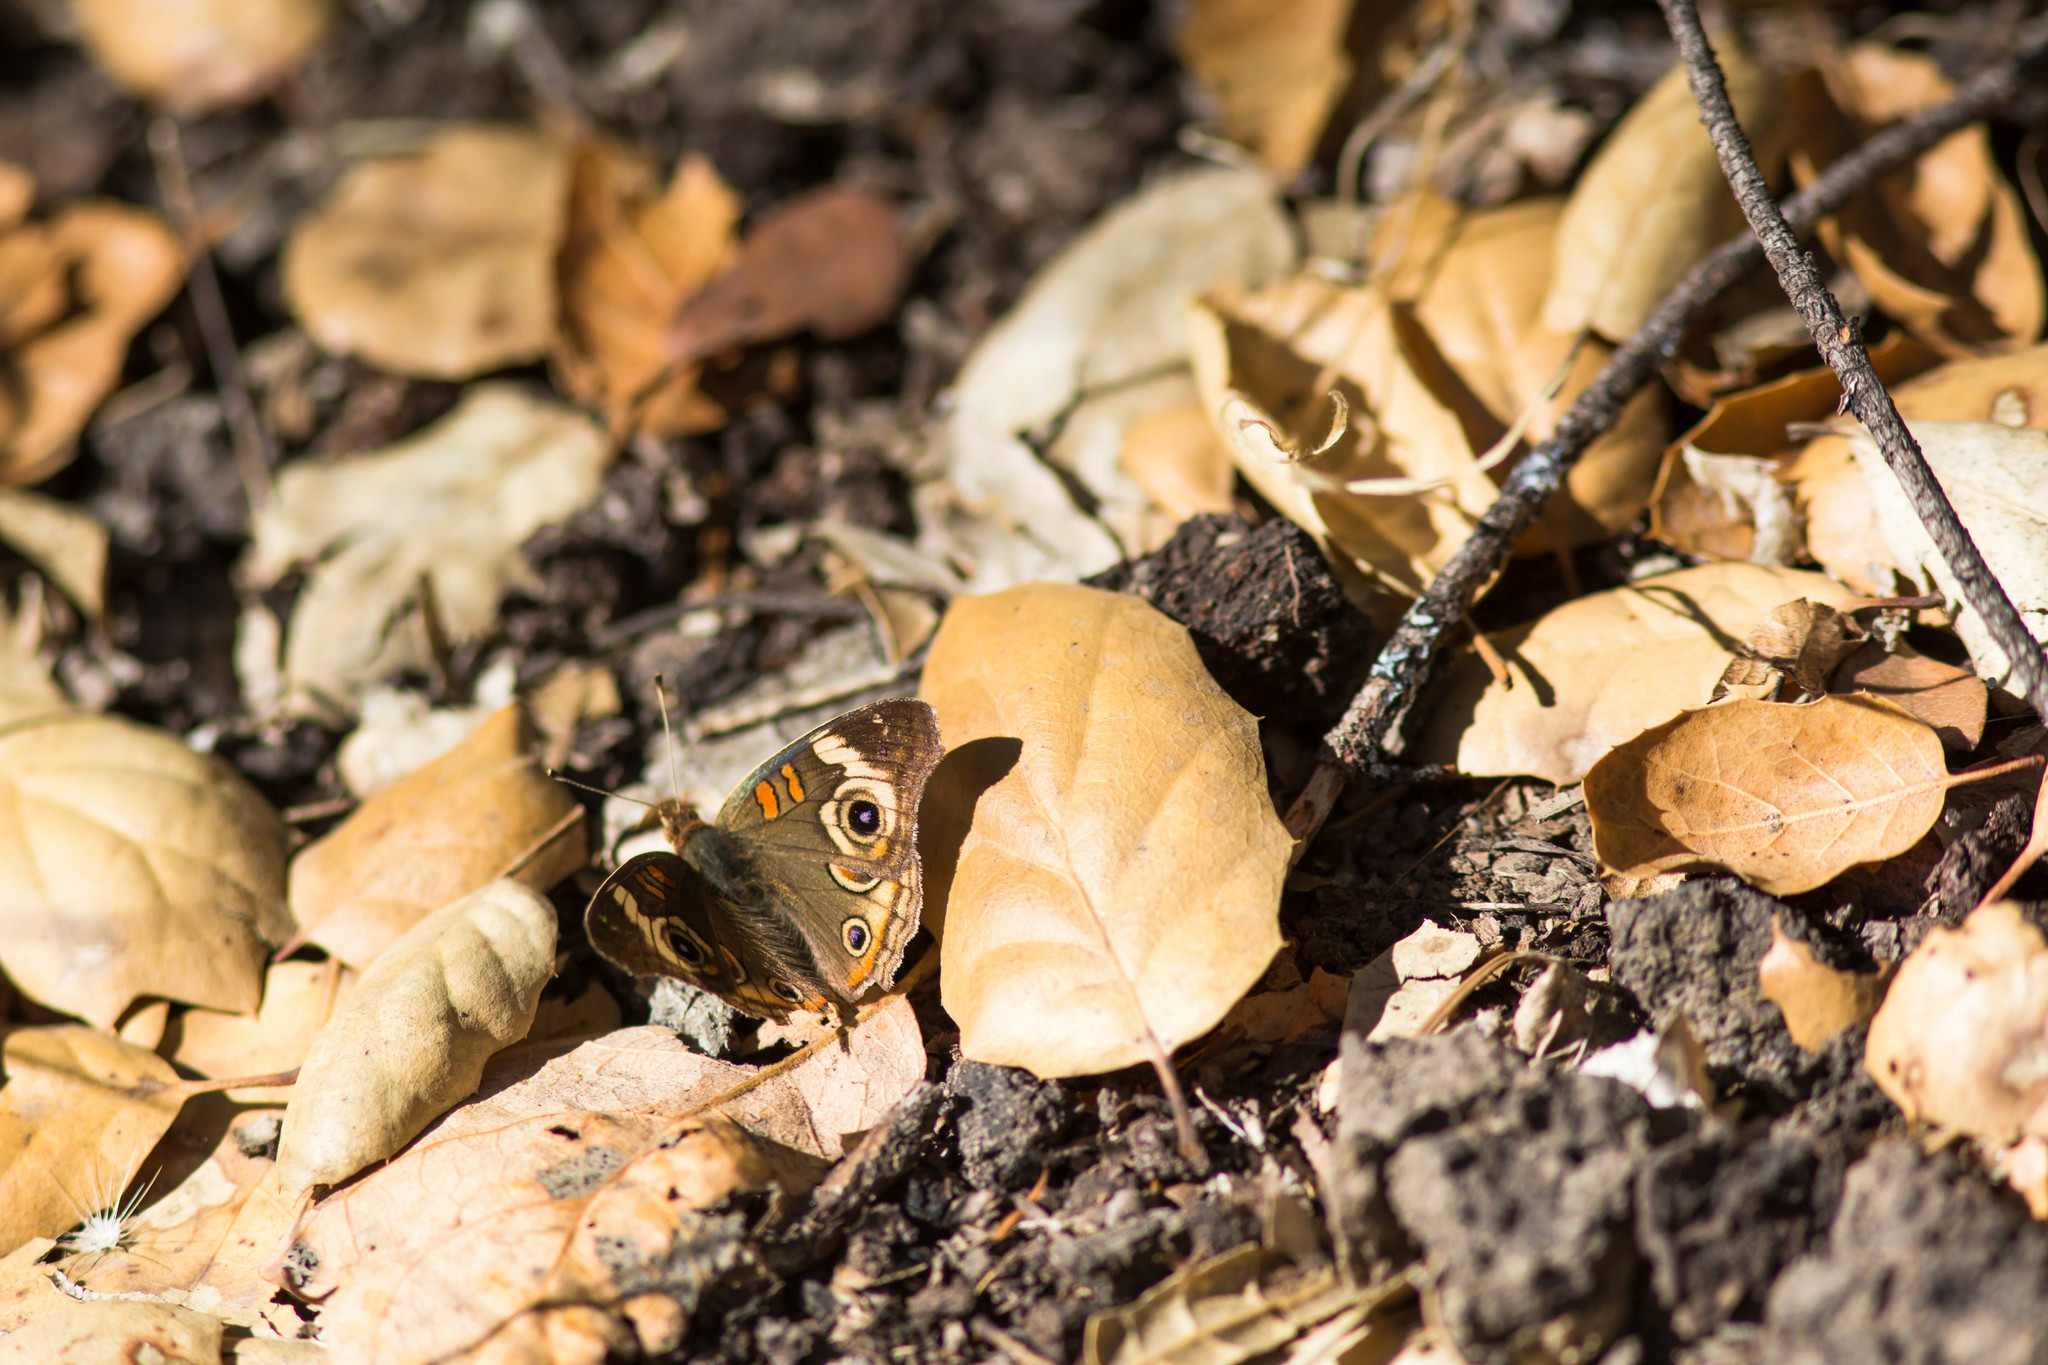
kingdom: Animalia
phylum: Arthropoda
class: Insecta
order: Lepidoptera
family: Nymphalidae
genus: Junonia
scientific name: Junonia grisea
